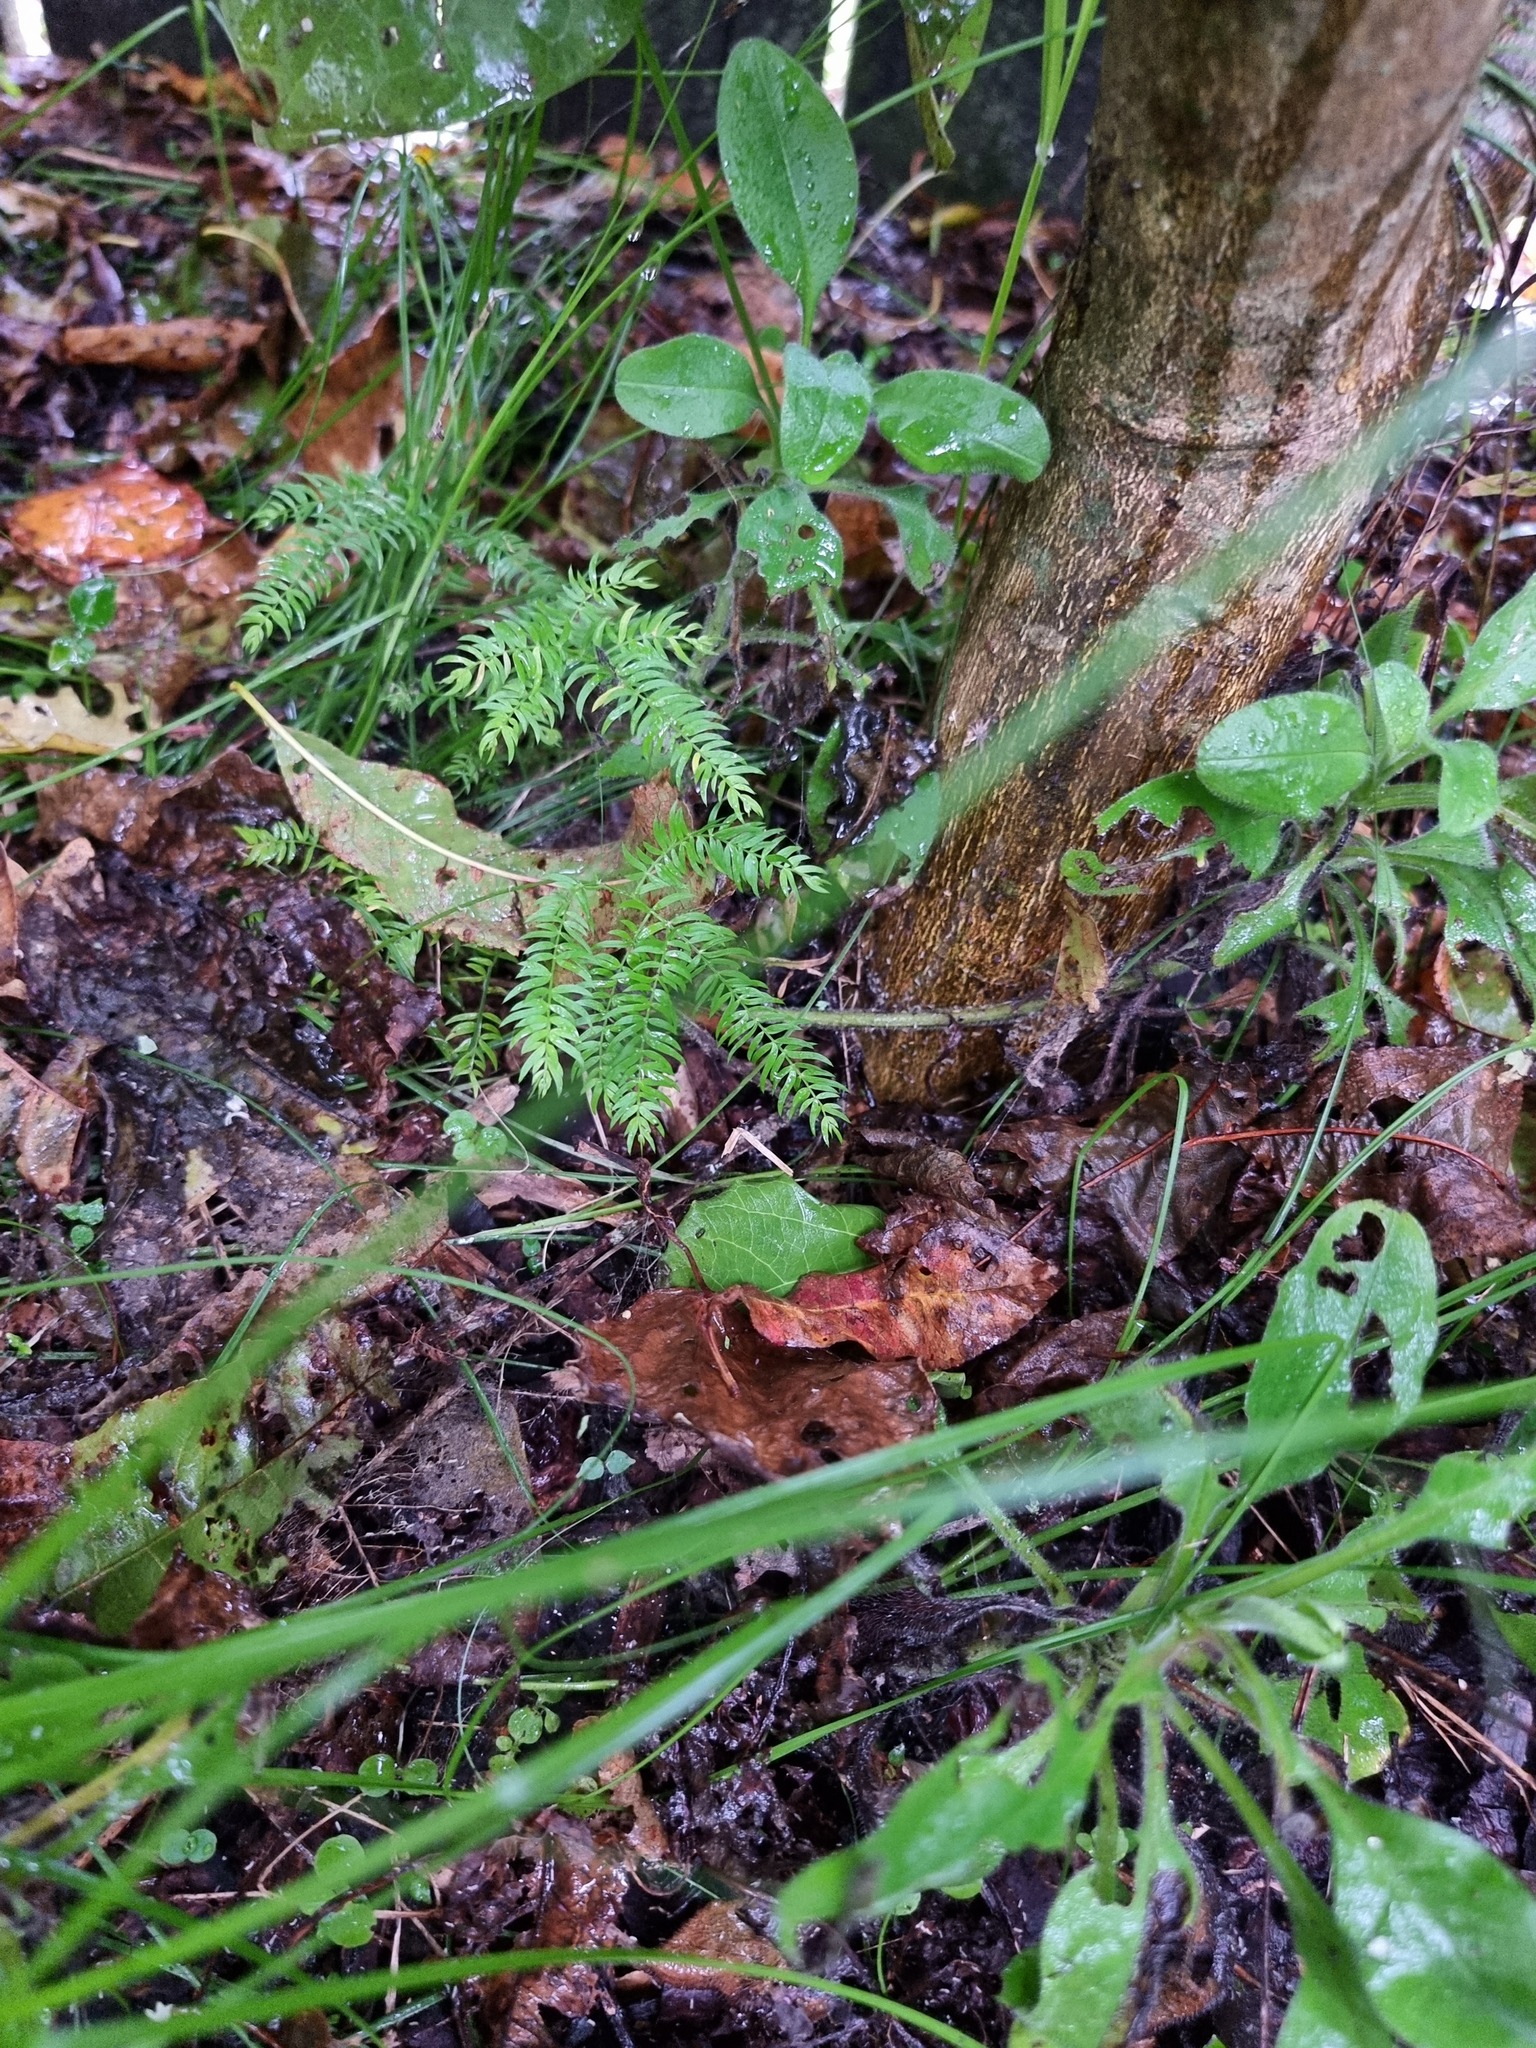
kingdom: Plantae
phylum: Tracheophyta
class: Liliopsida
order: Asparagales
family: Asparagaceae
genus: Asparagus
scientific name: Asparagus scandens
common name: Asparagus-fern
